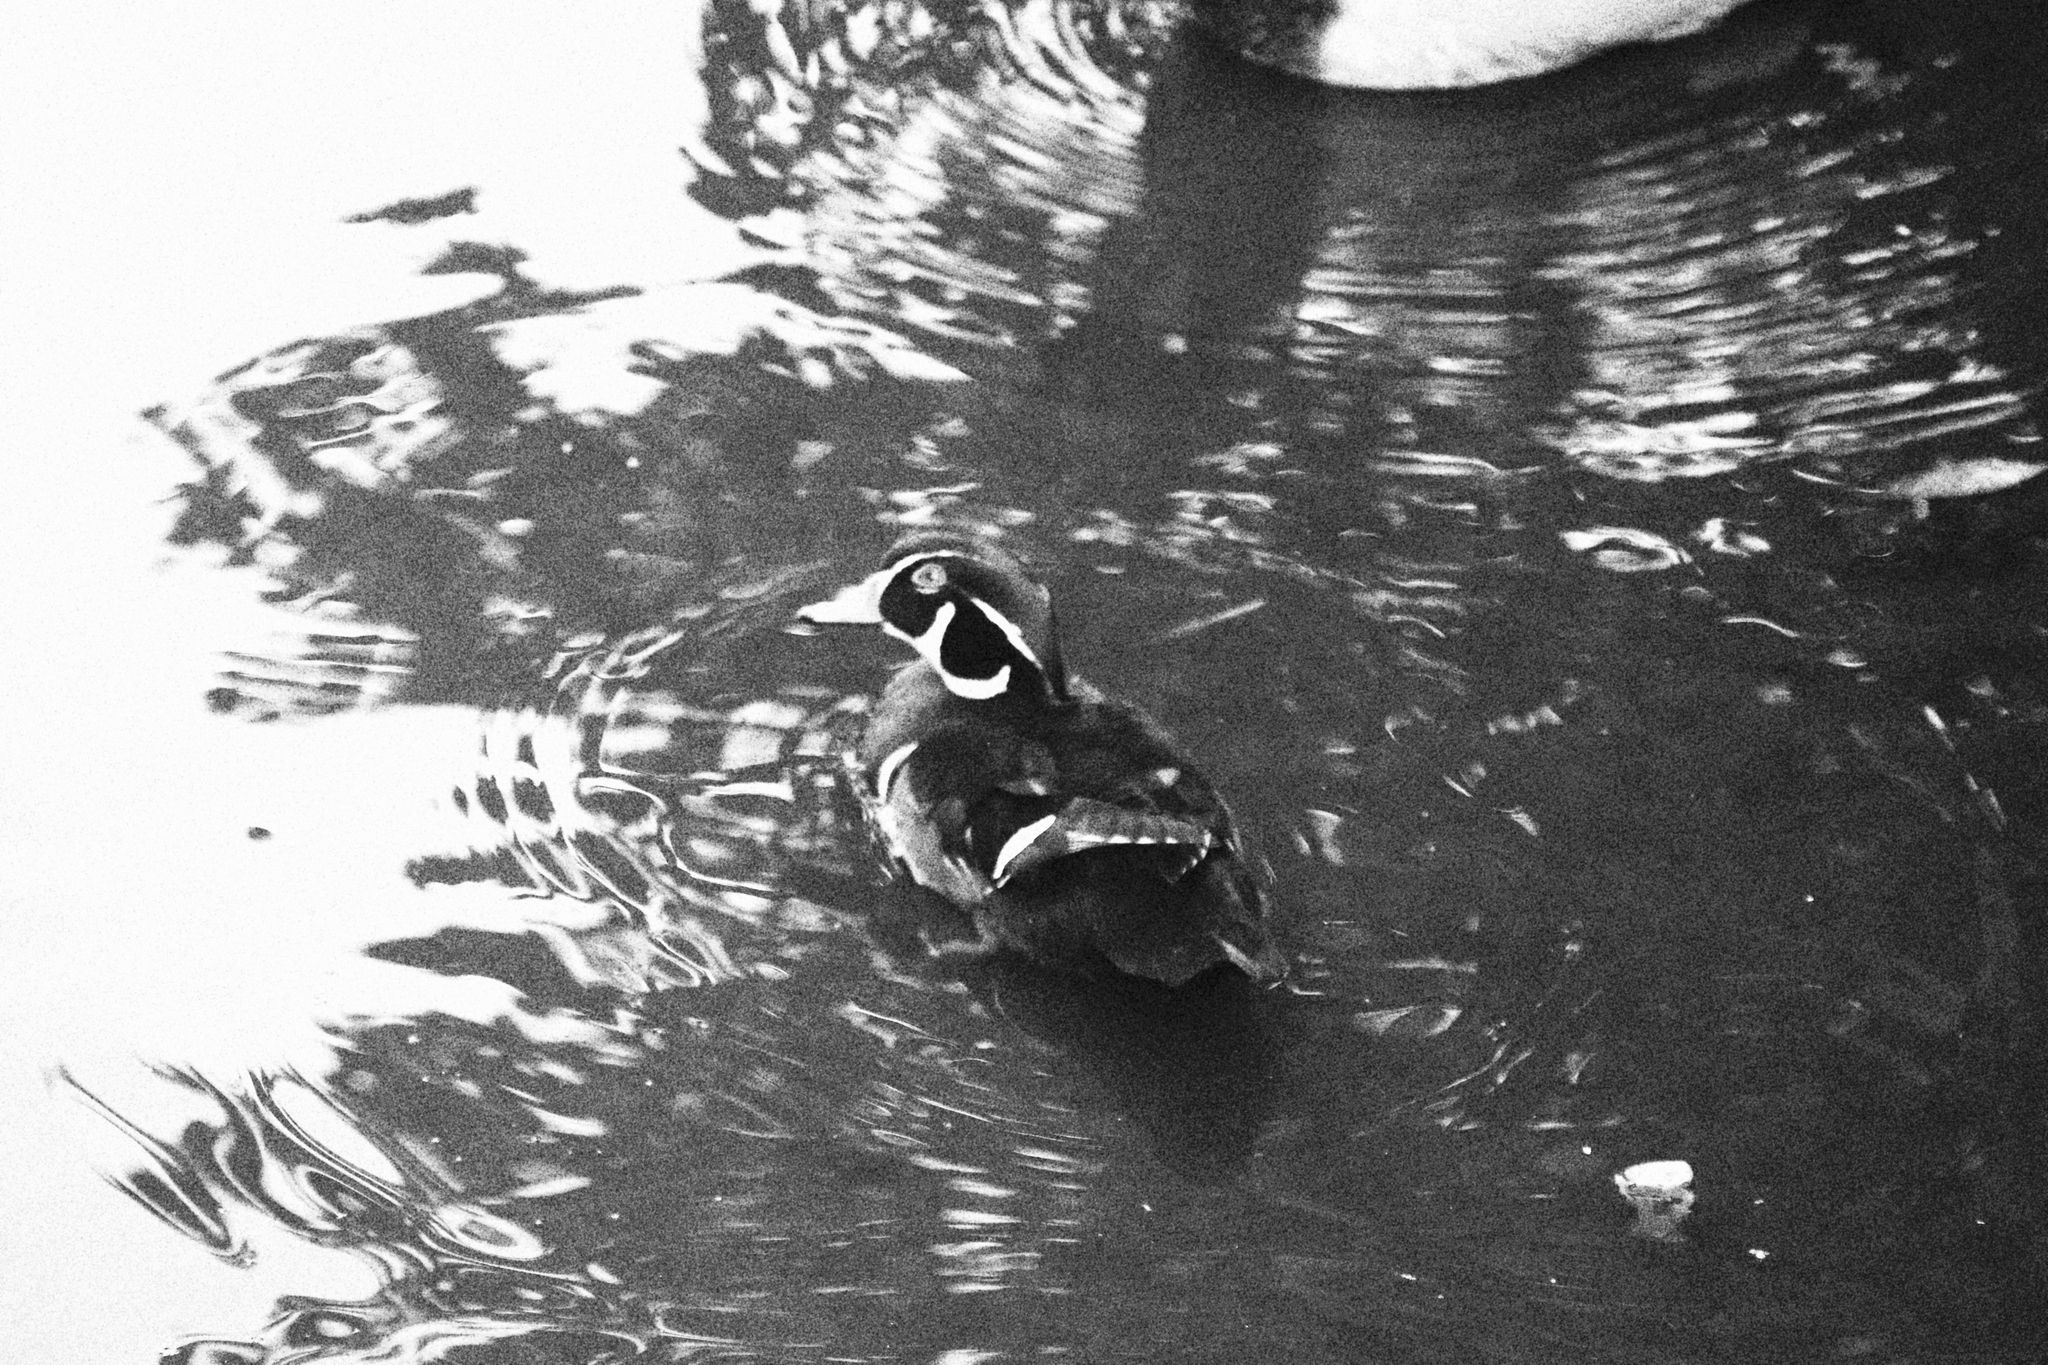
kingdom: Animalia
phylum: Chordata
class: Aves
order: Anseriformes
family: Anatidae
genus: Aix
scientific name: Aix sponsa
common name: Wood duck
